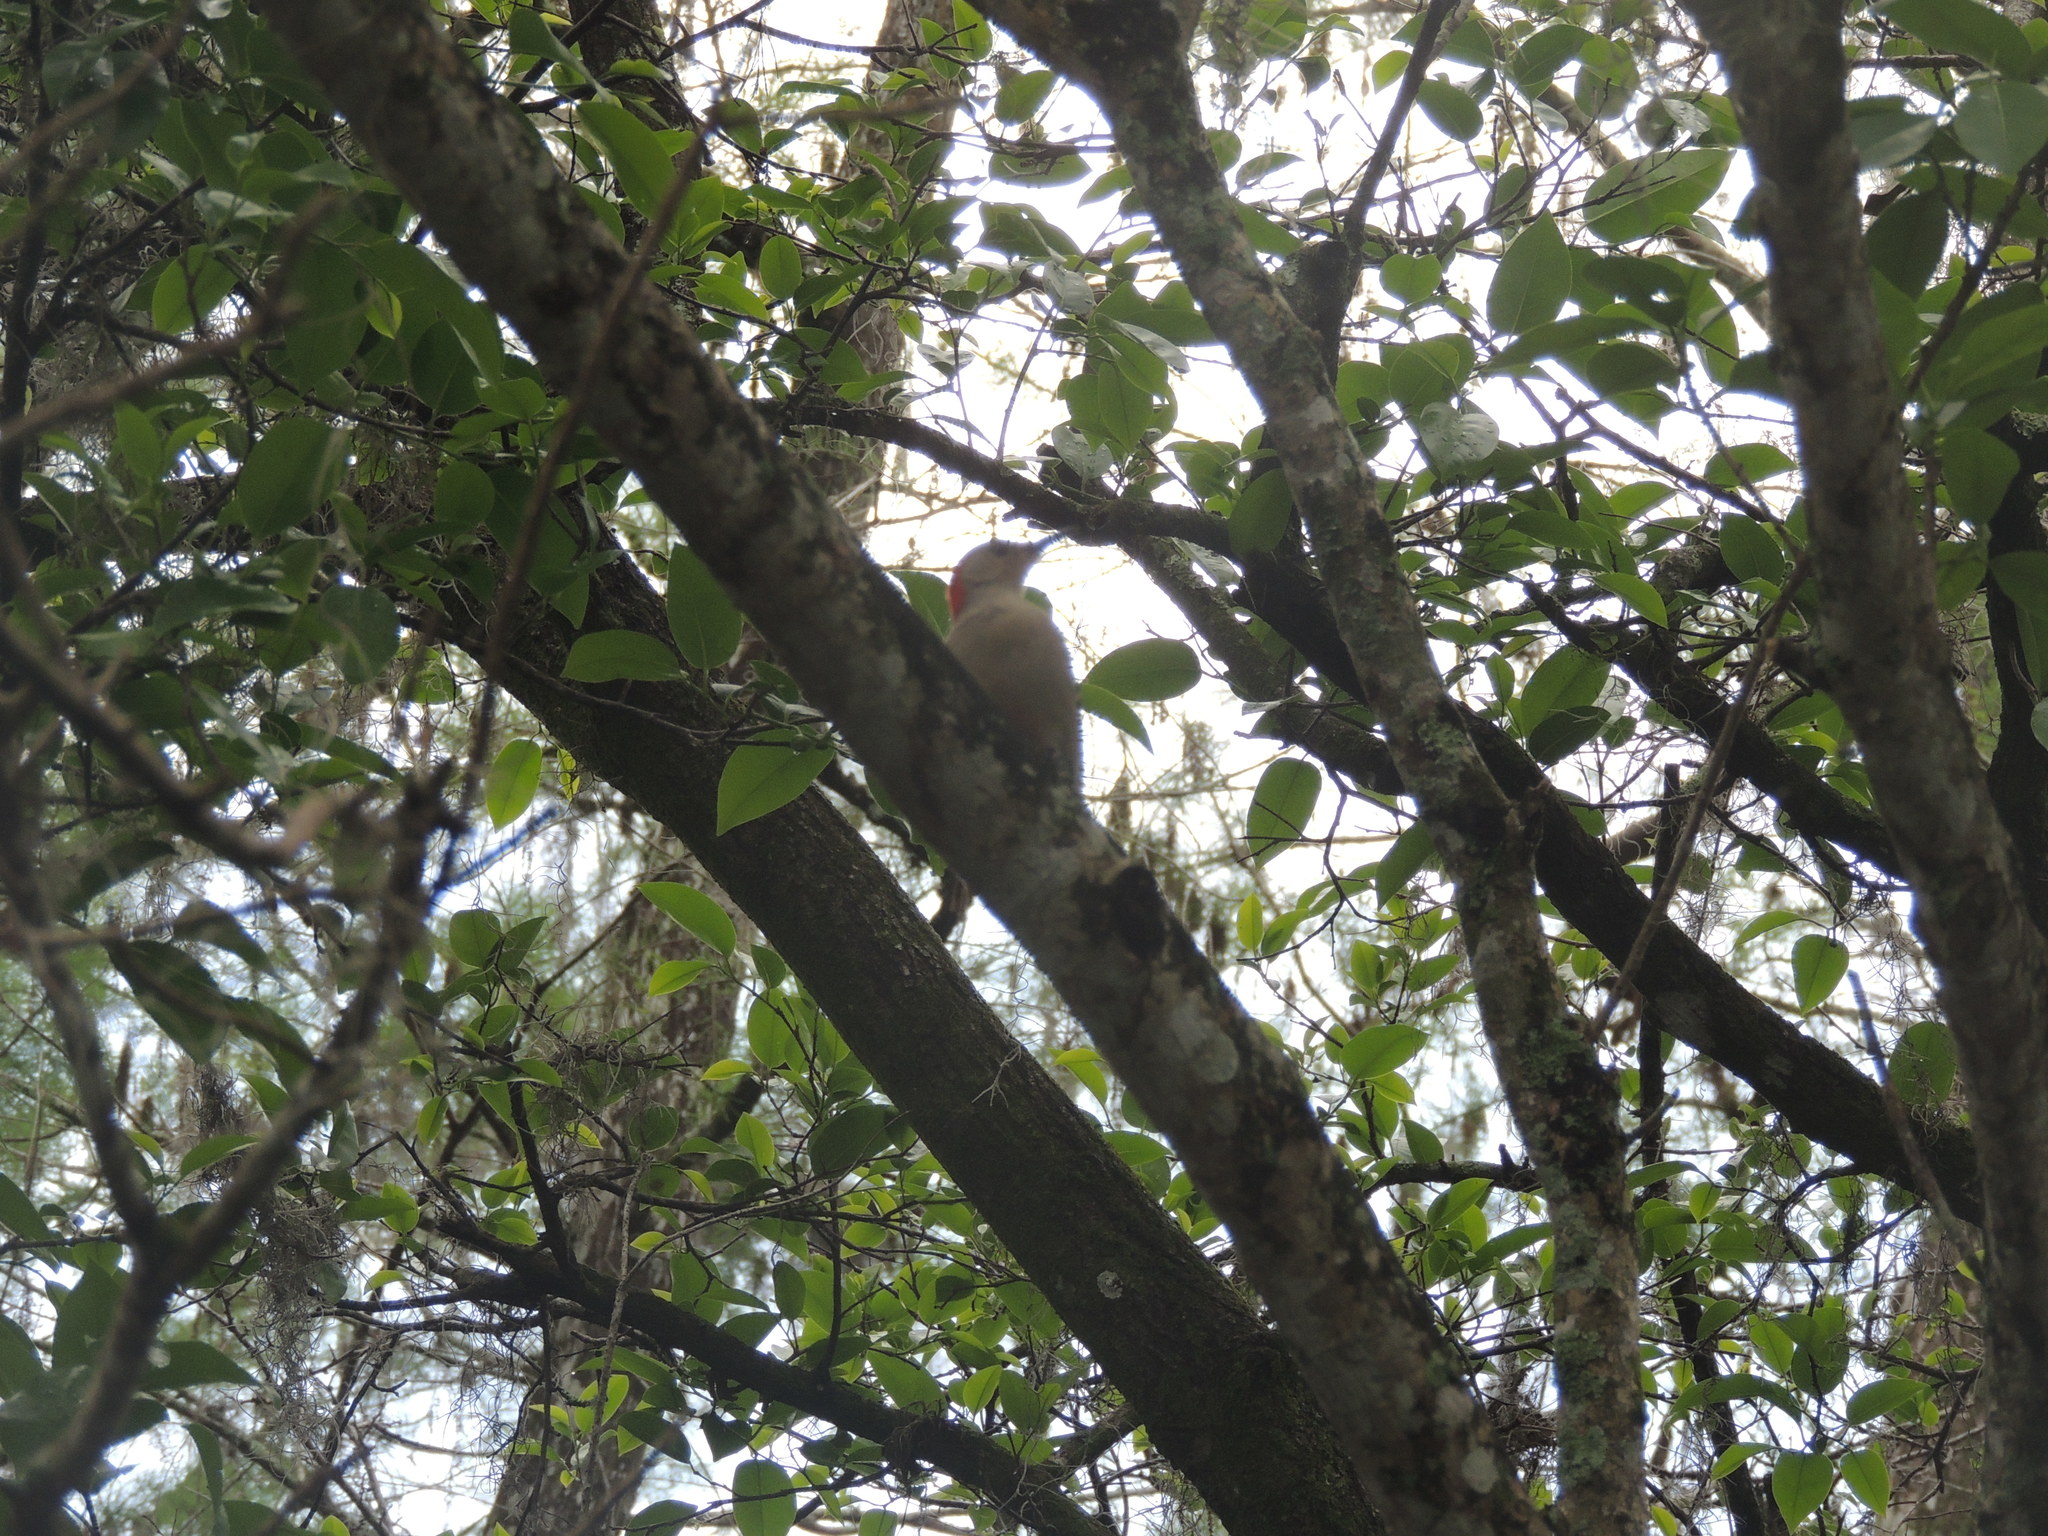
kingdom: Animalia
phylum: Chordata
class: Aves
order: Piciformes
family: Picidae
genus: Melanerpes
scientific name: Melanerpes carolinus
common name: Red-bellied woodpecker
